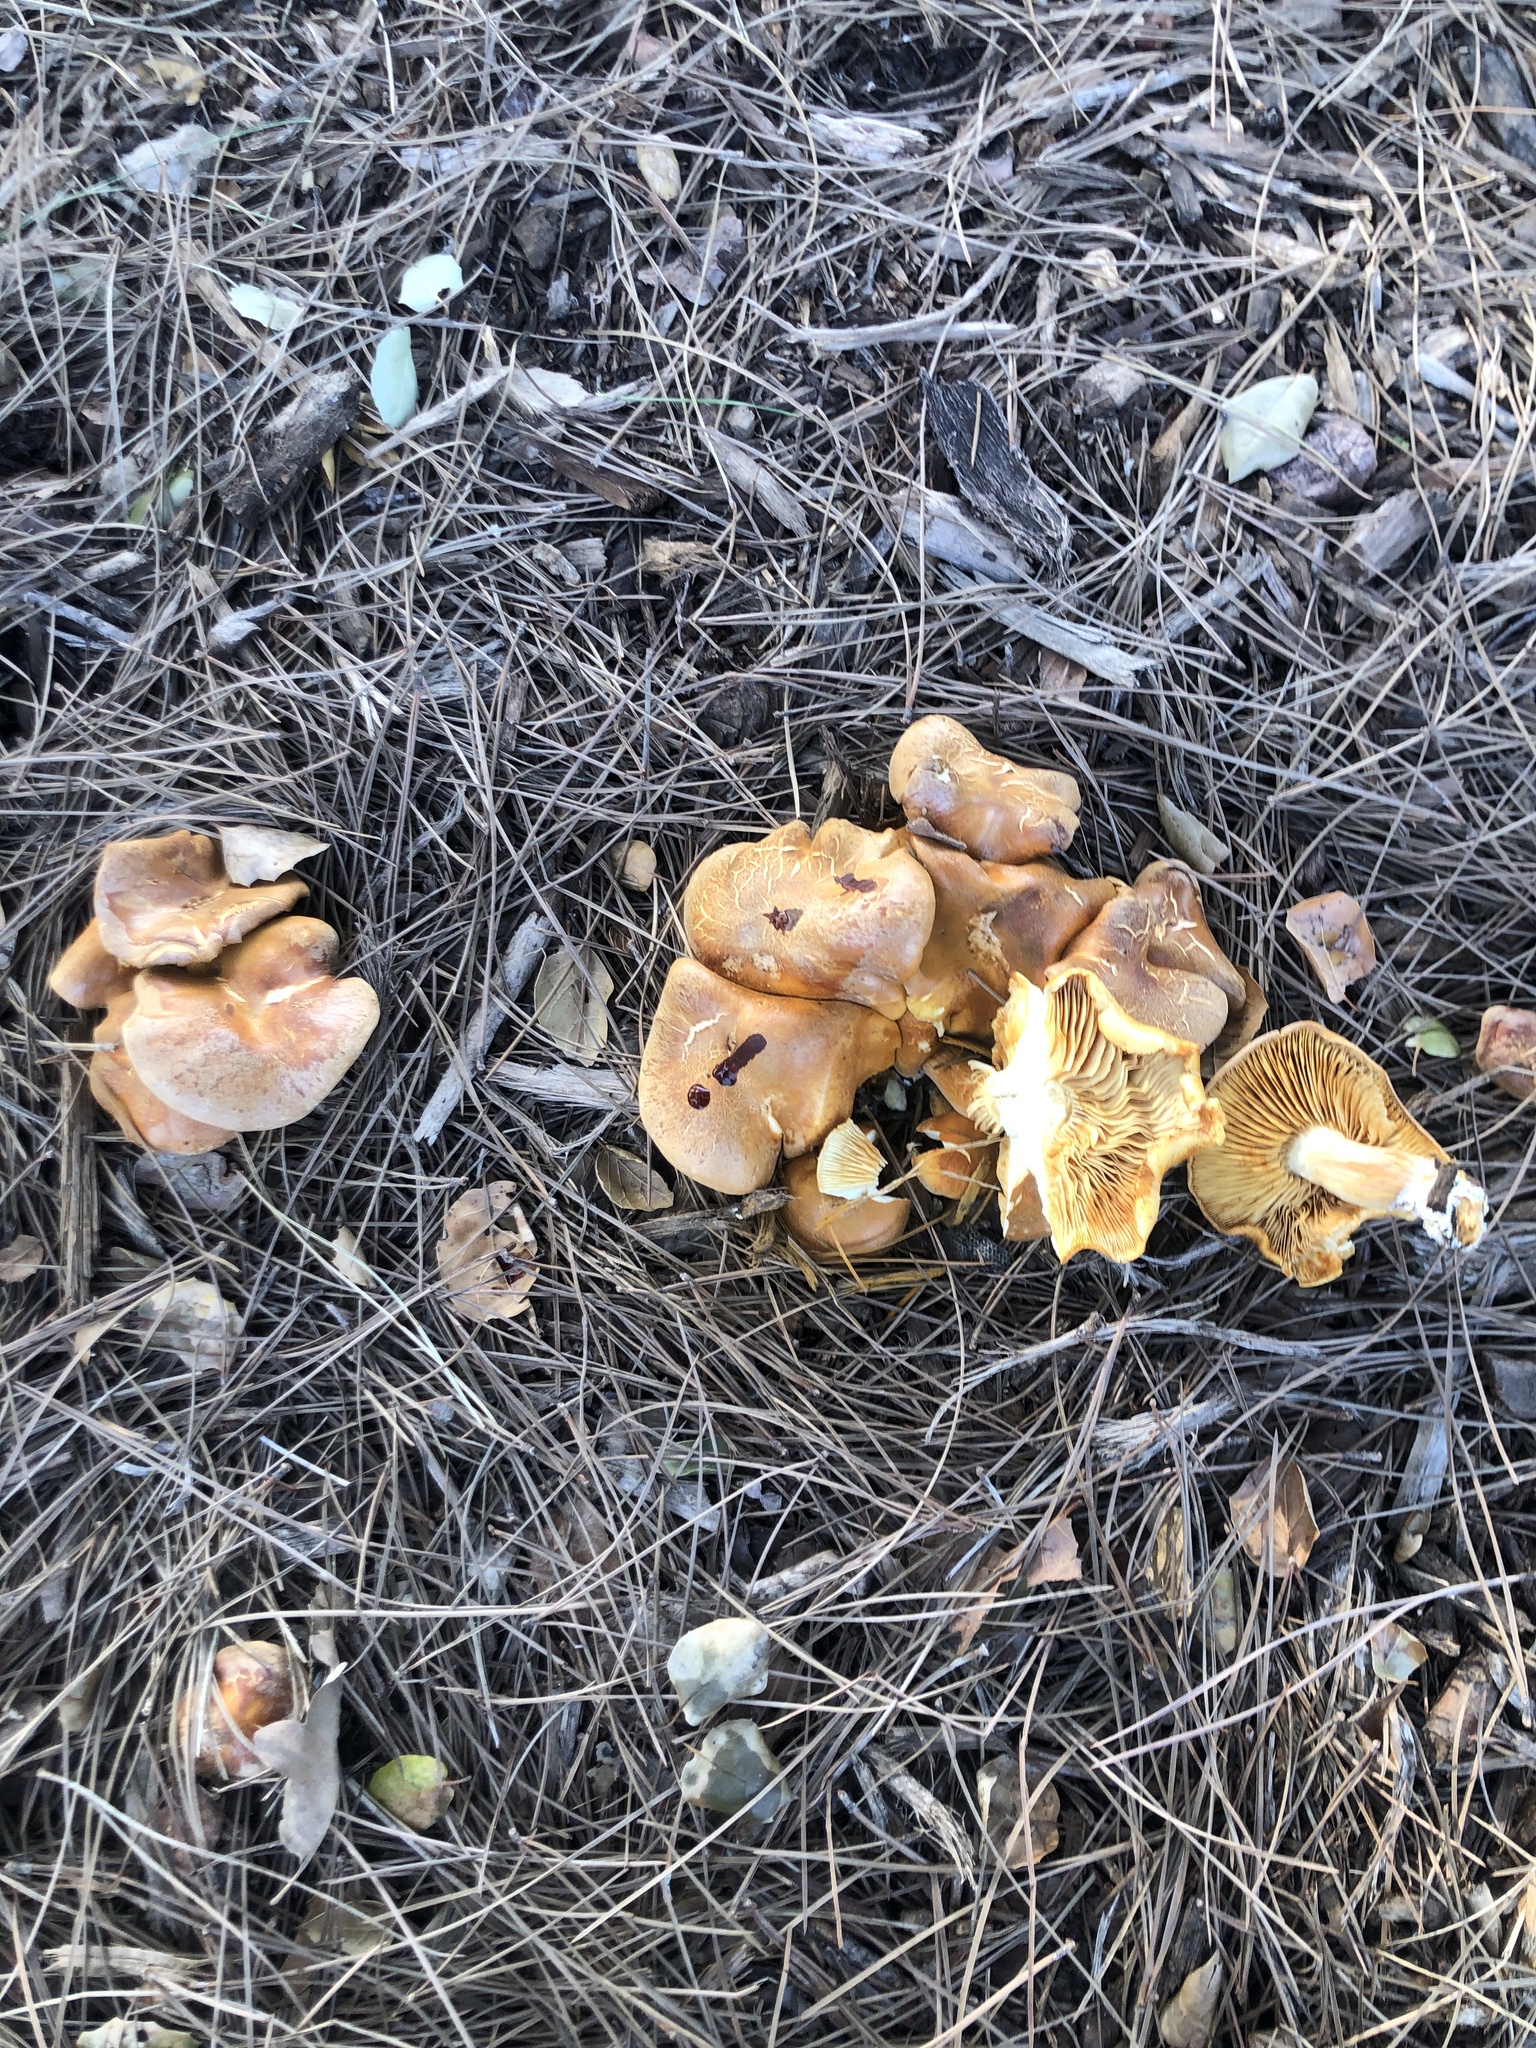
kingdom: Fungi
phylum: Basidiomycota
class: Agaricomycetes
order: Agaricales
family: Hymenogastraceae
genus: Gymnopilus
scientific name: Gymnopilus aurantiophyllus
